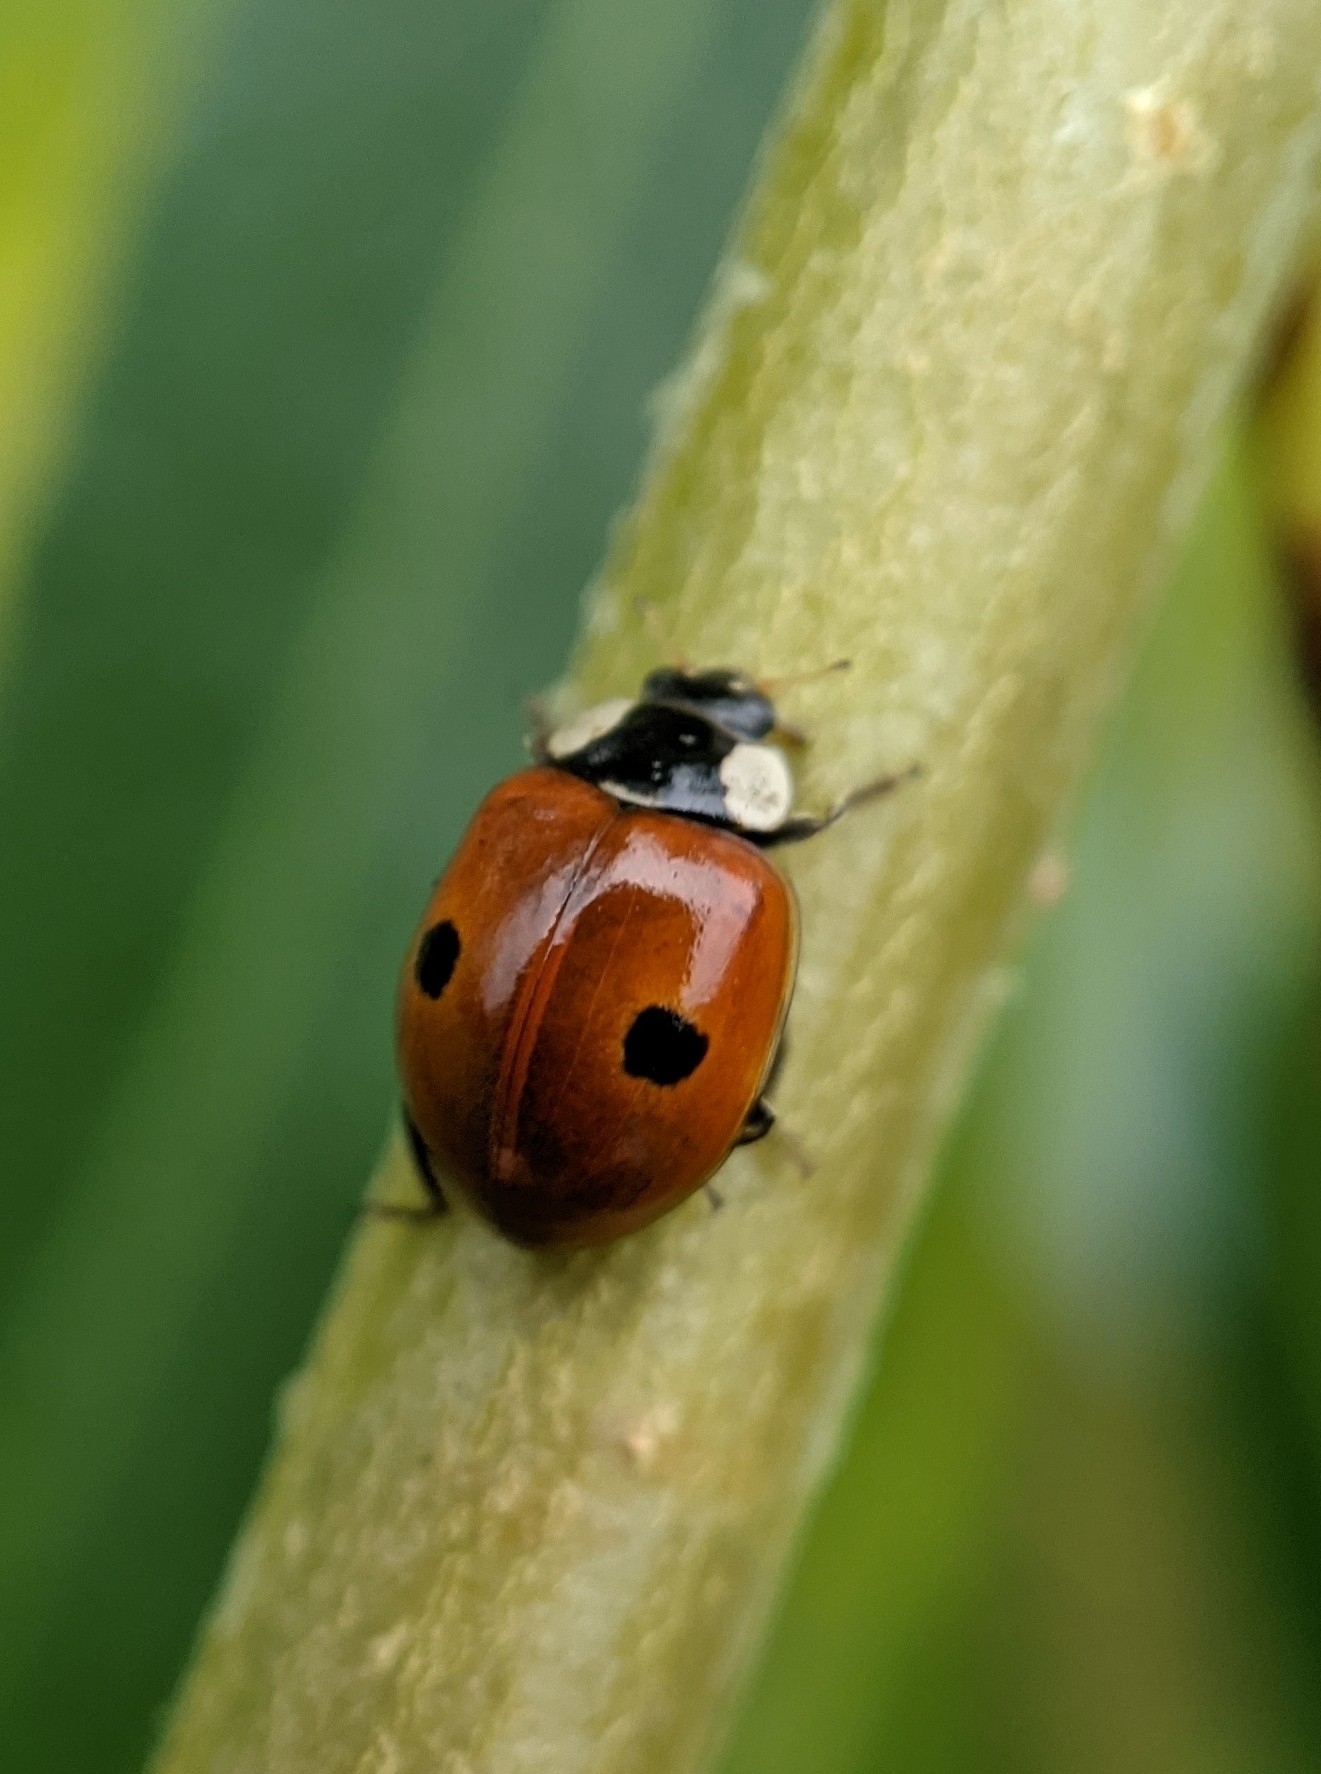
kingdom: Animalia
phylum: Arthropoda
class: Insecta
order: Coleoptera
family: Coccinellidae
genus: Adalia
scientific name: Adalia bipunctata
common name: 2-spot ladybird
